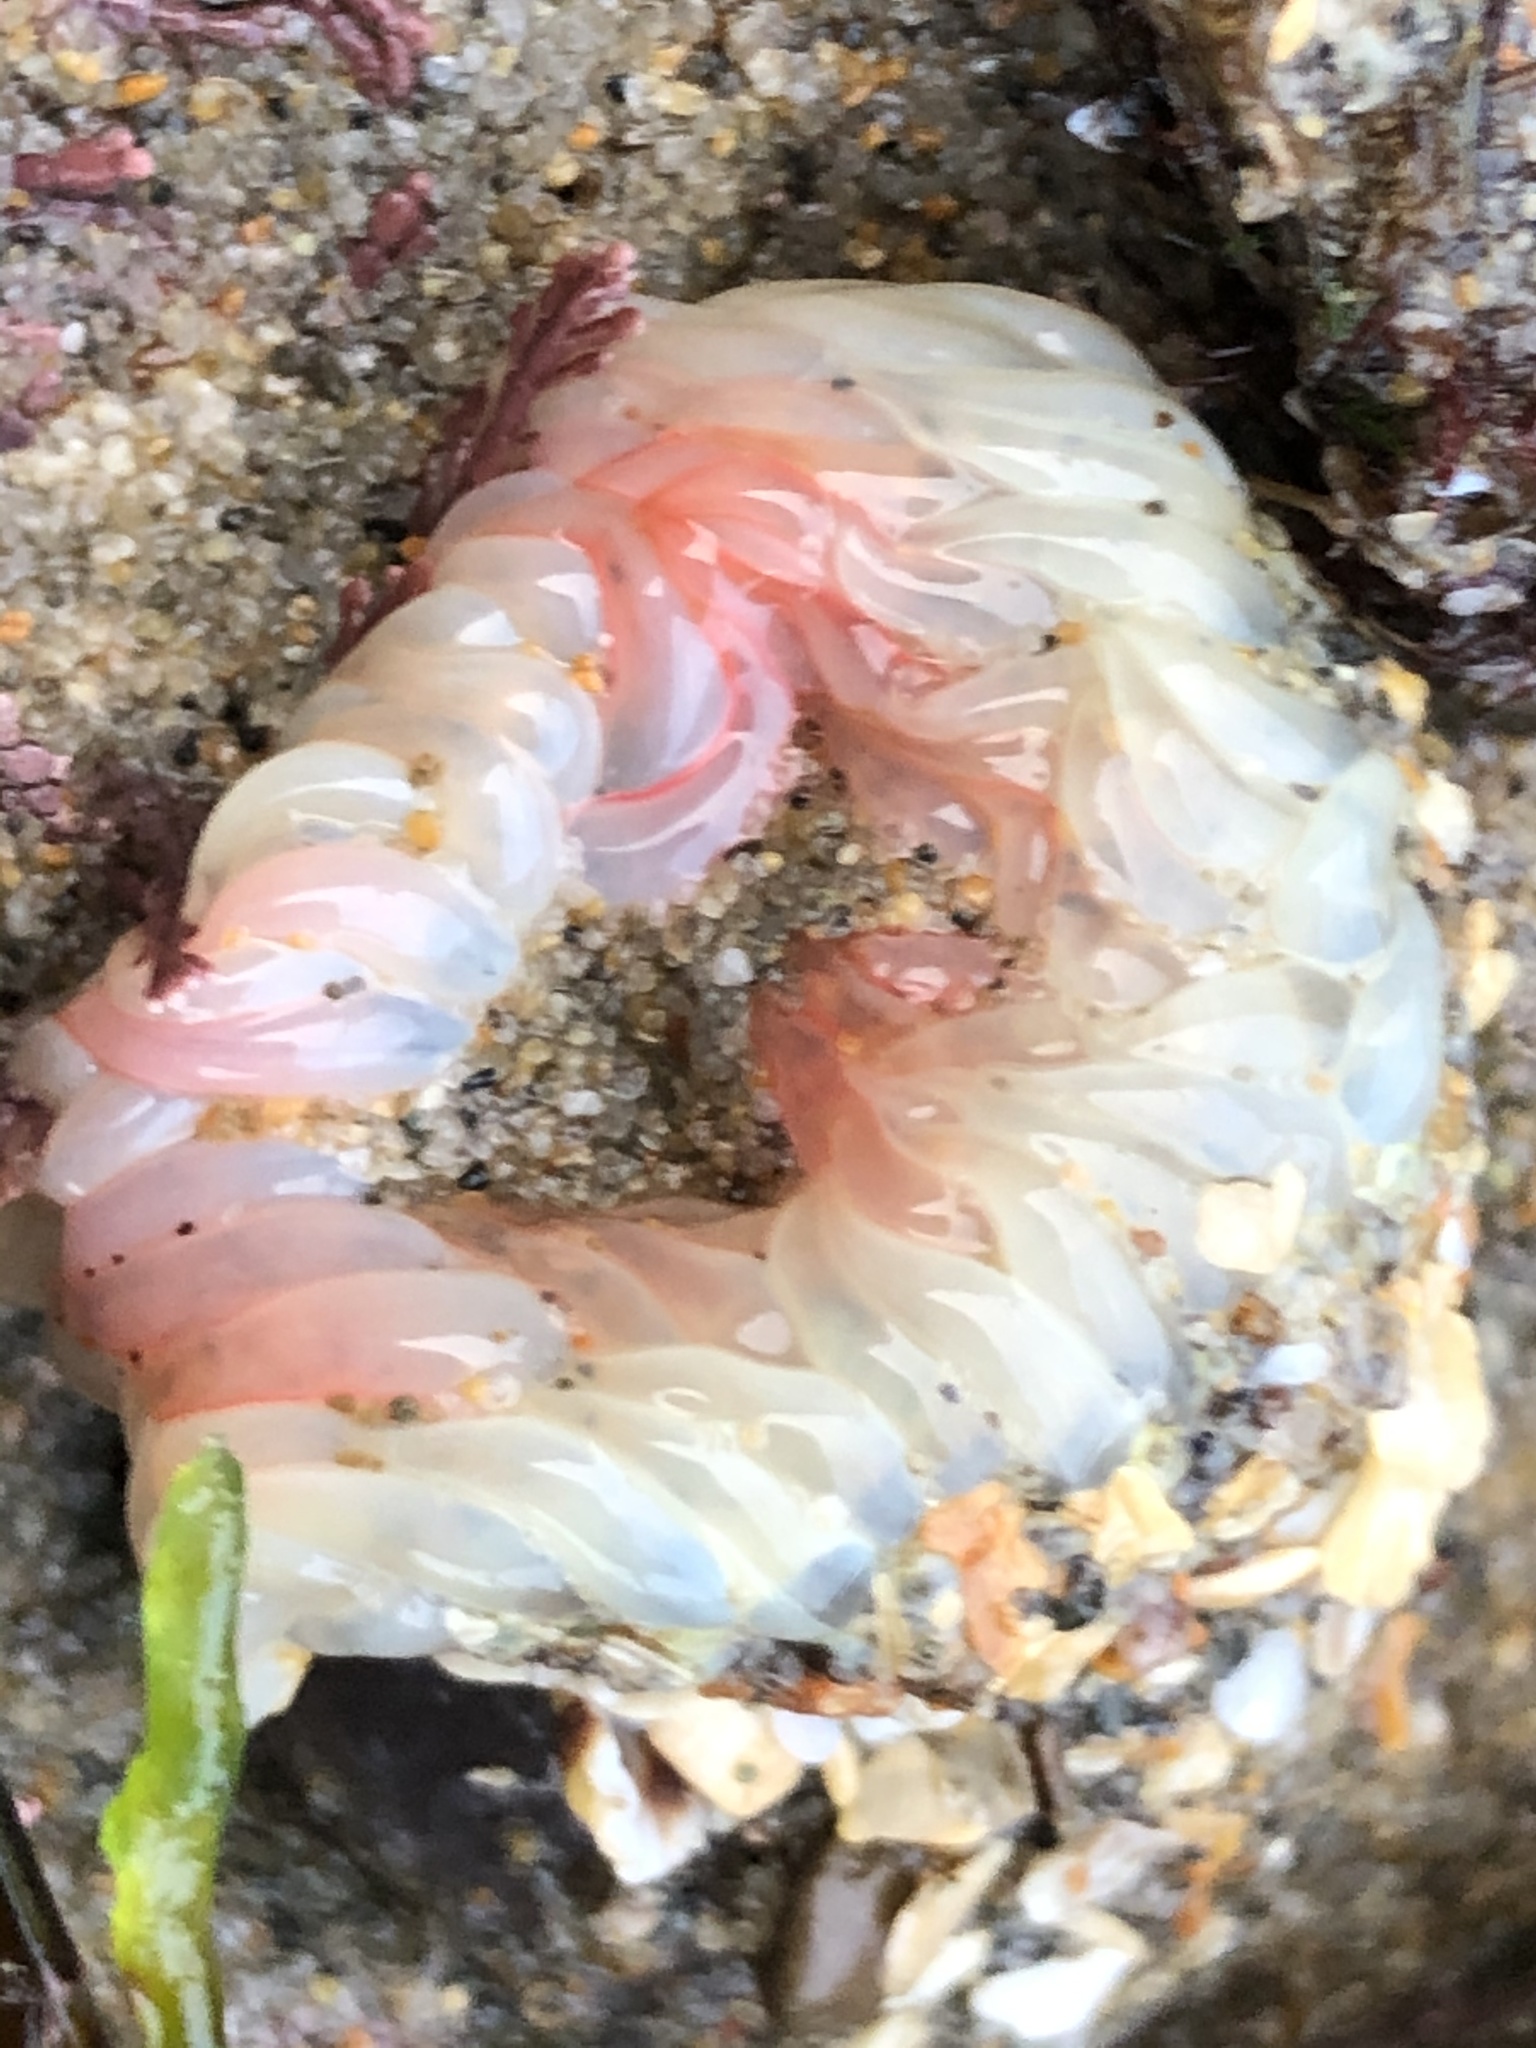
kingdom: Animalia
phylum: Cnidaria
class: Anthozoa
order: Actiniaria
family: Actiniidae
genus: Anthopleura
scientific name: Anthopleura artemisia
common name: Buried sea anemone
